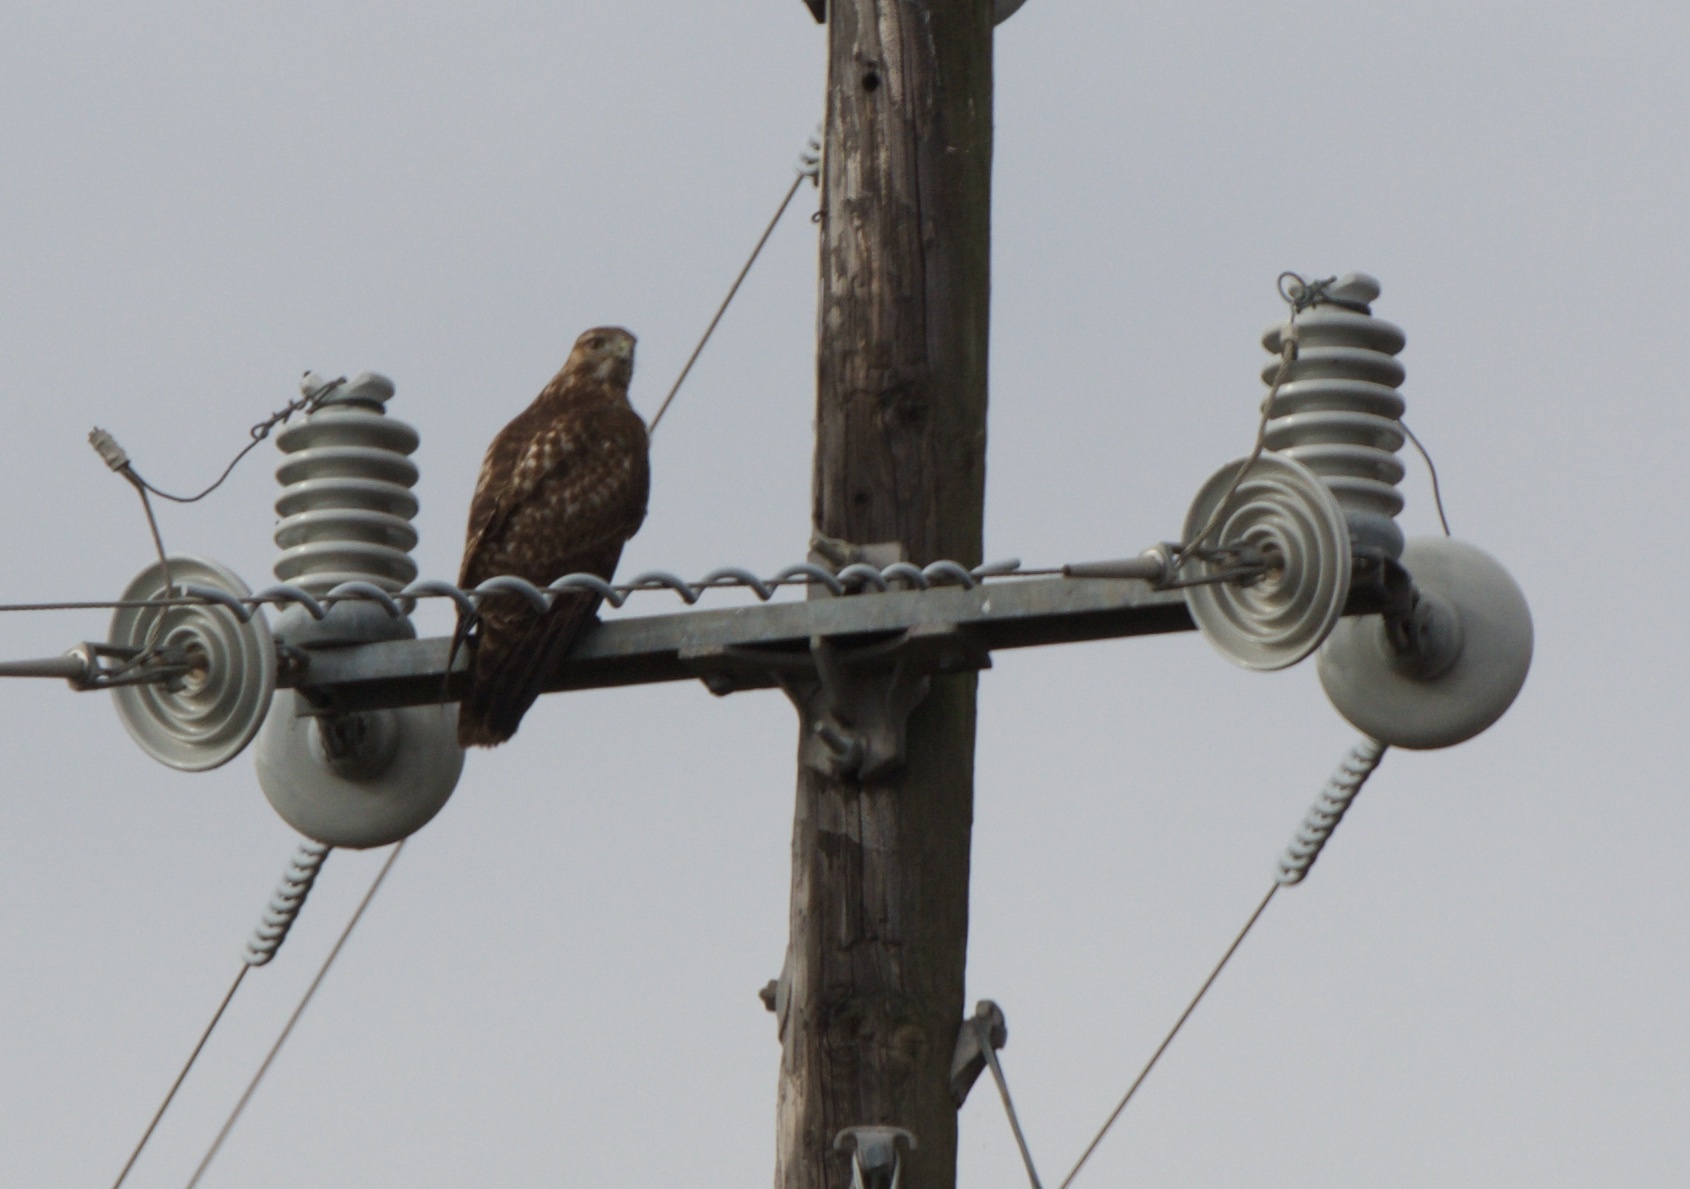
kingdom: Animalia
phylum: Chordata
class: Aves
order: Accipitriformes
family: Accipitridae
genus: Buteo
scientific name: Buteo jamaicensis
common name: Red-tailed hawk
